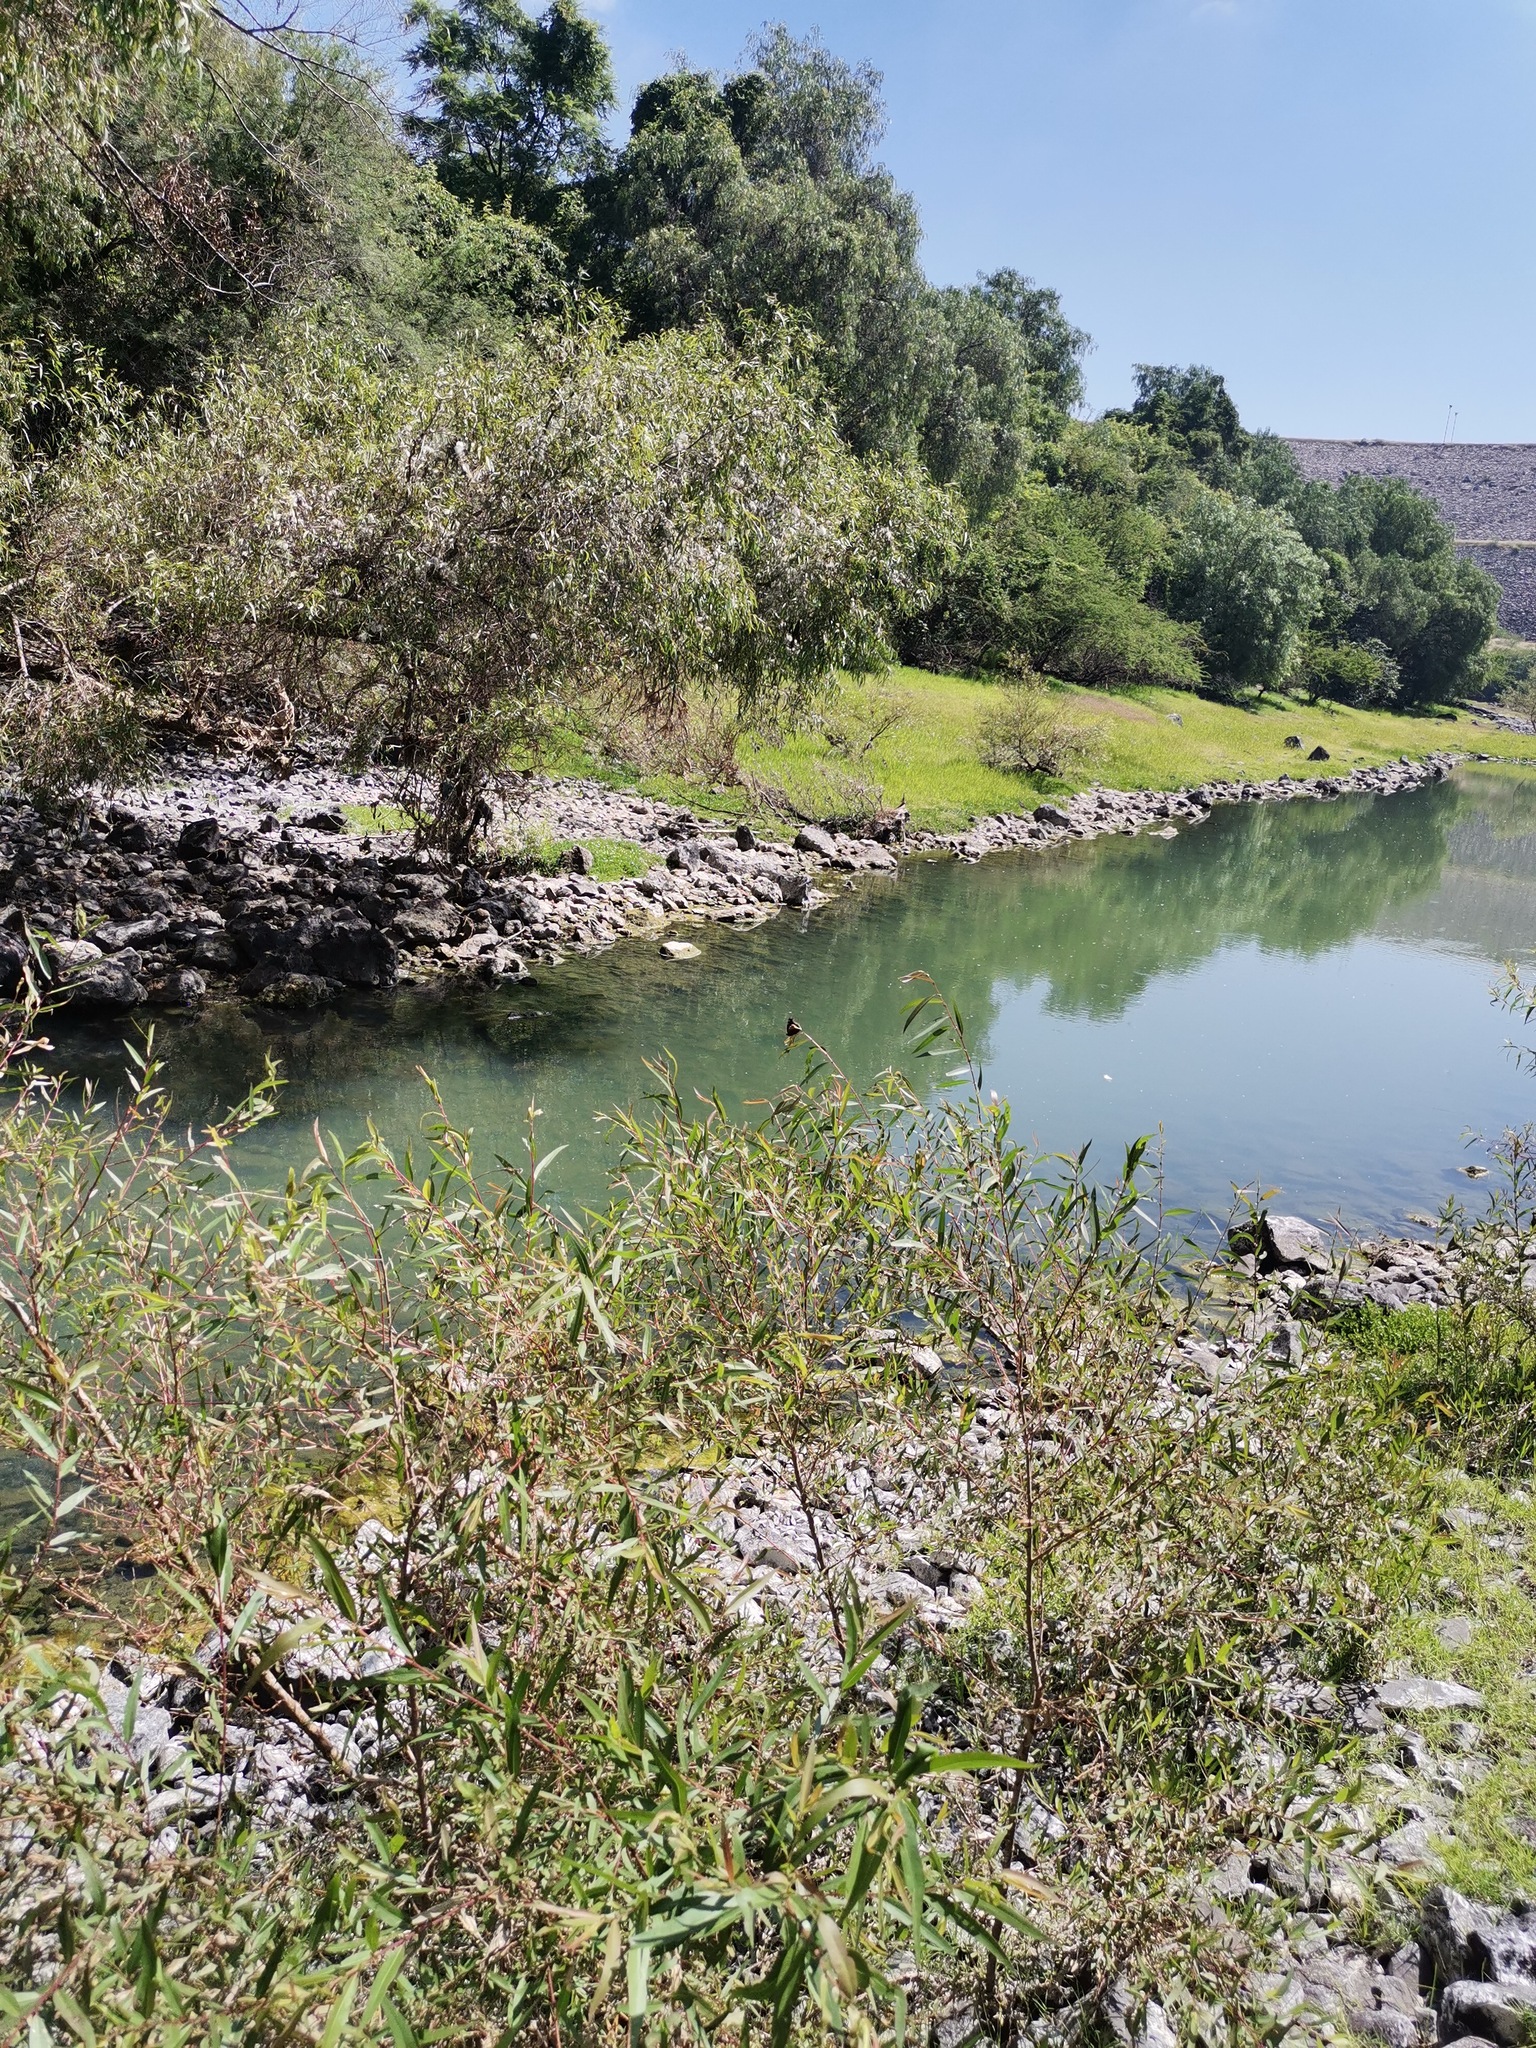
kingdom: Plantae
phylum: Tracheophyta
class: Magnoliopsida
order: Malpighiales
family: Salicaceae
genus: Salix
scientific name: Salix humboldtiana
